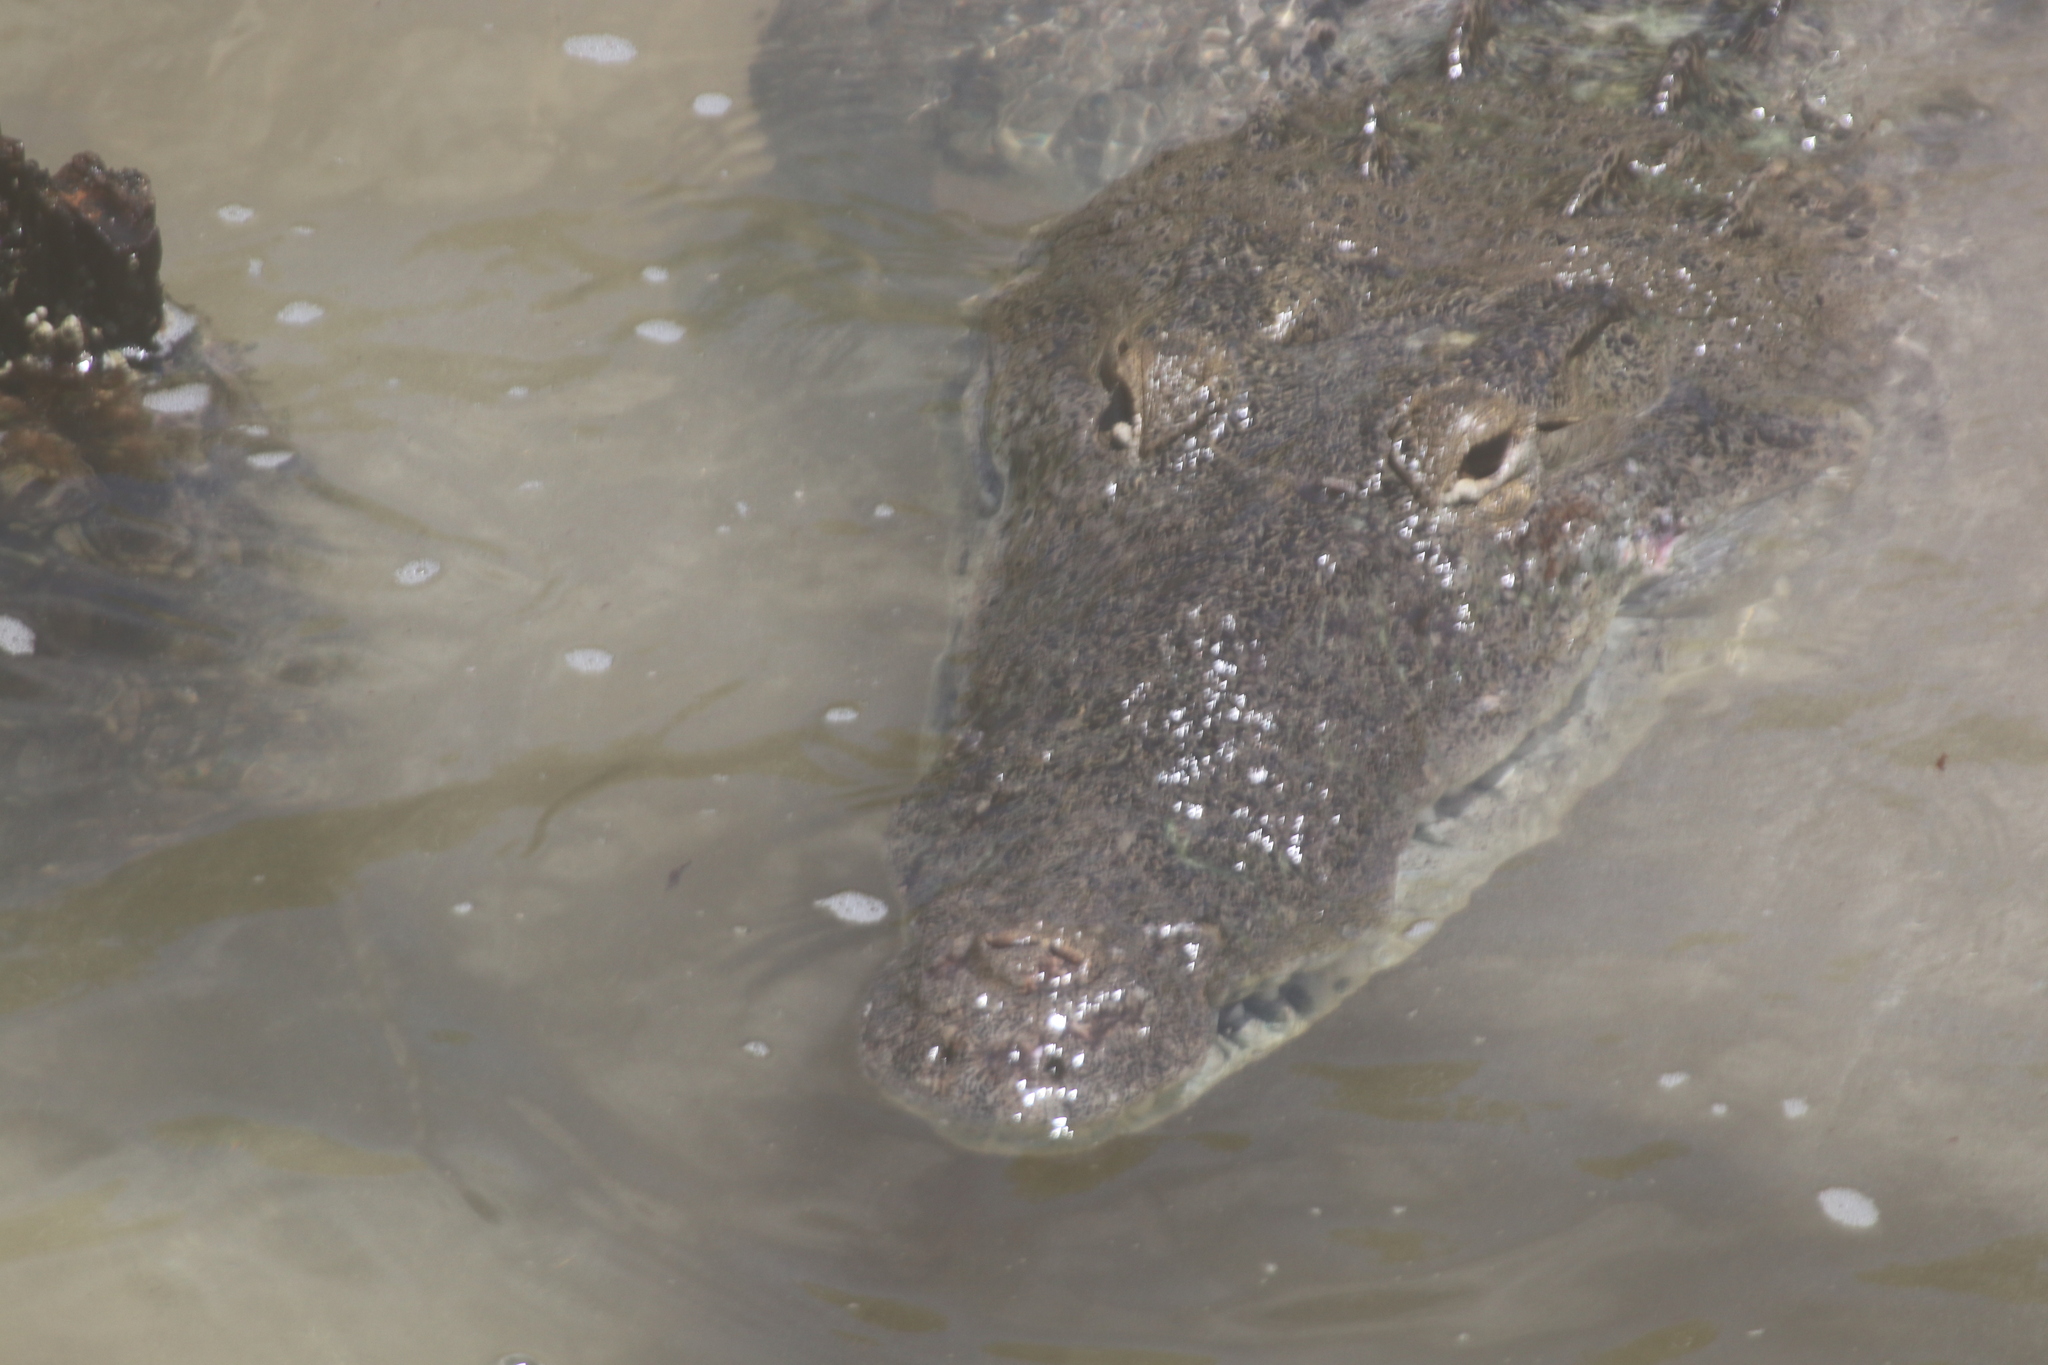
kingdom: Animalia
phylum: Chordata
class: Crocodylia
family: Crocodylidae
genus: Crocodylus
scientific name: Crocodylus moreletii
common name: Morelet's crocodile
